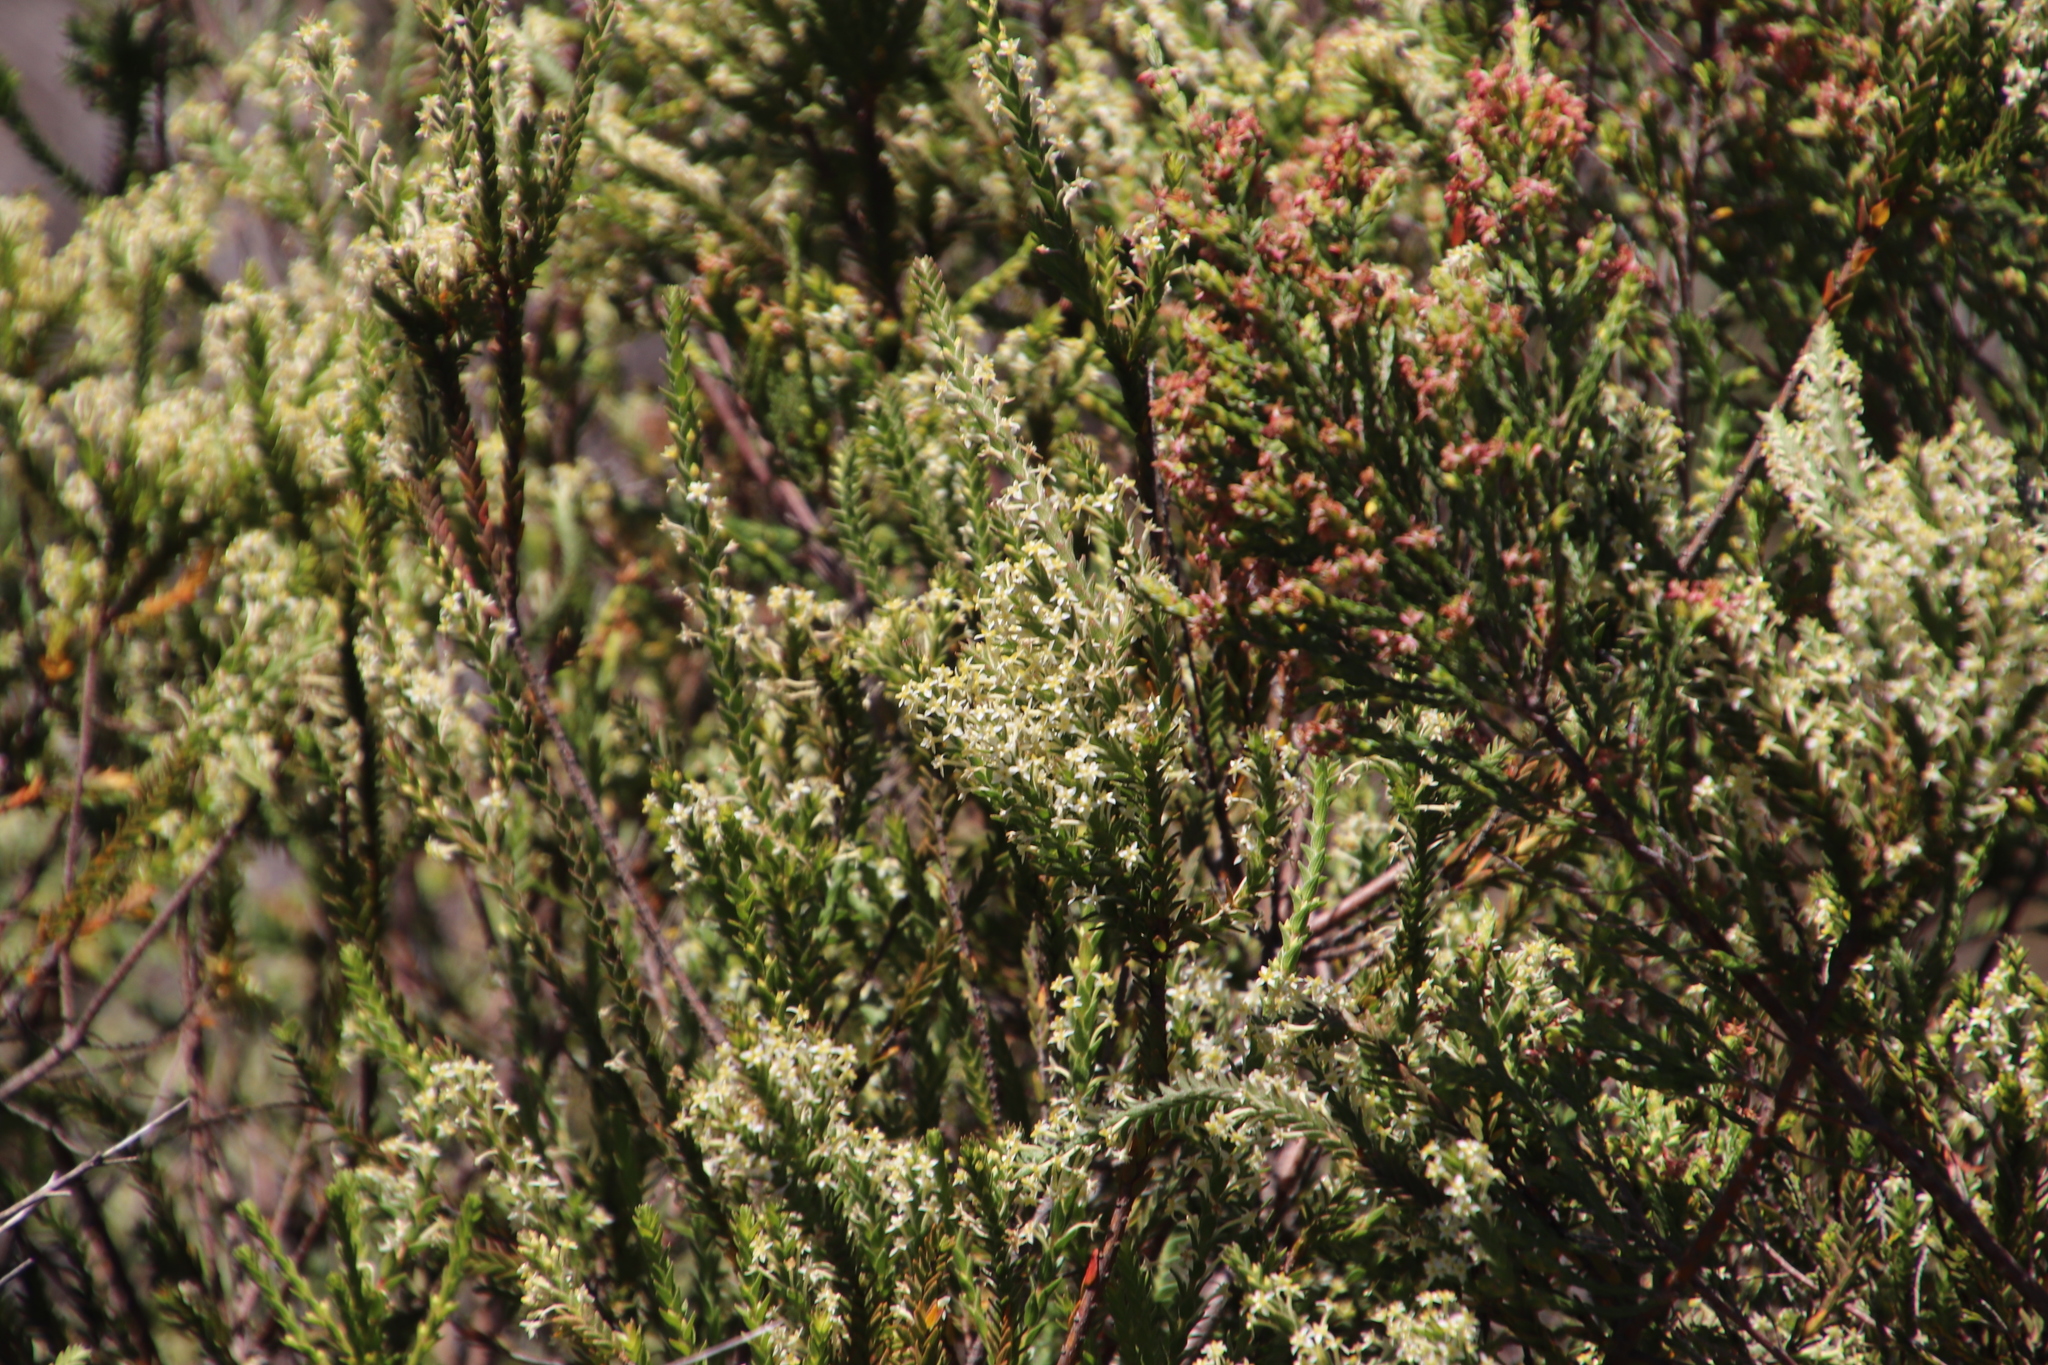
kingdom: Plantae
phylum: Tracheophyta
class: Magnoliopsida
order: Malvales
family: Thymelaeaceae
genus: Struthiola
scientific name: Struthiola ciliata
